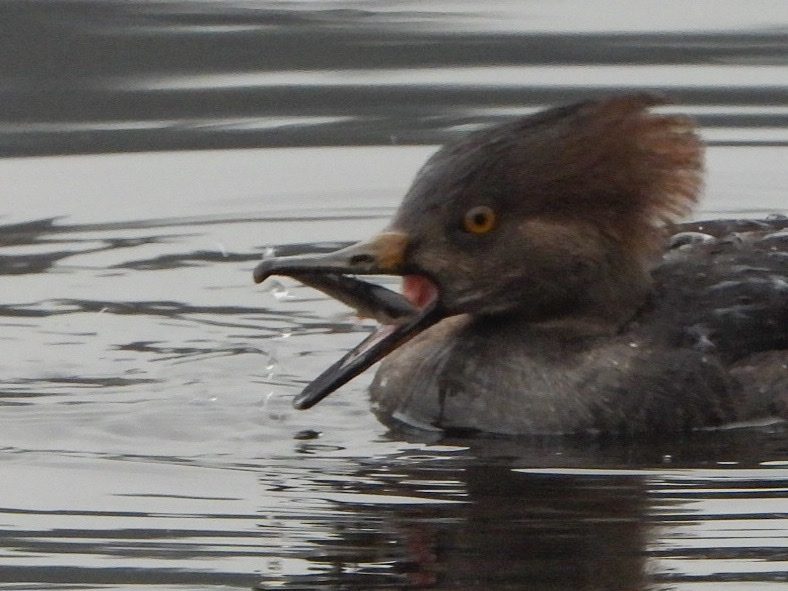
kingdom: Animalia
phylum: Chordata
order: Gasterosteiformes
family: Gasterosteidae
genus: Gasterosteus
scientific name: Gasterosteus aculeatus
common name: Three-spined stickleback
